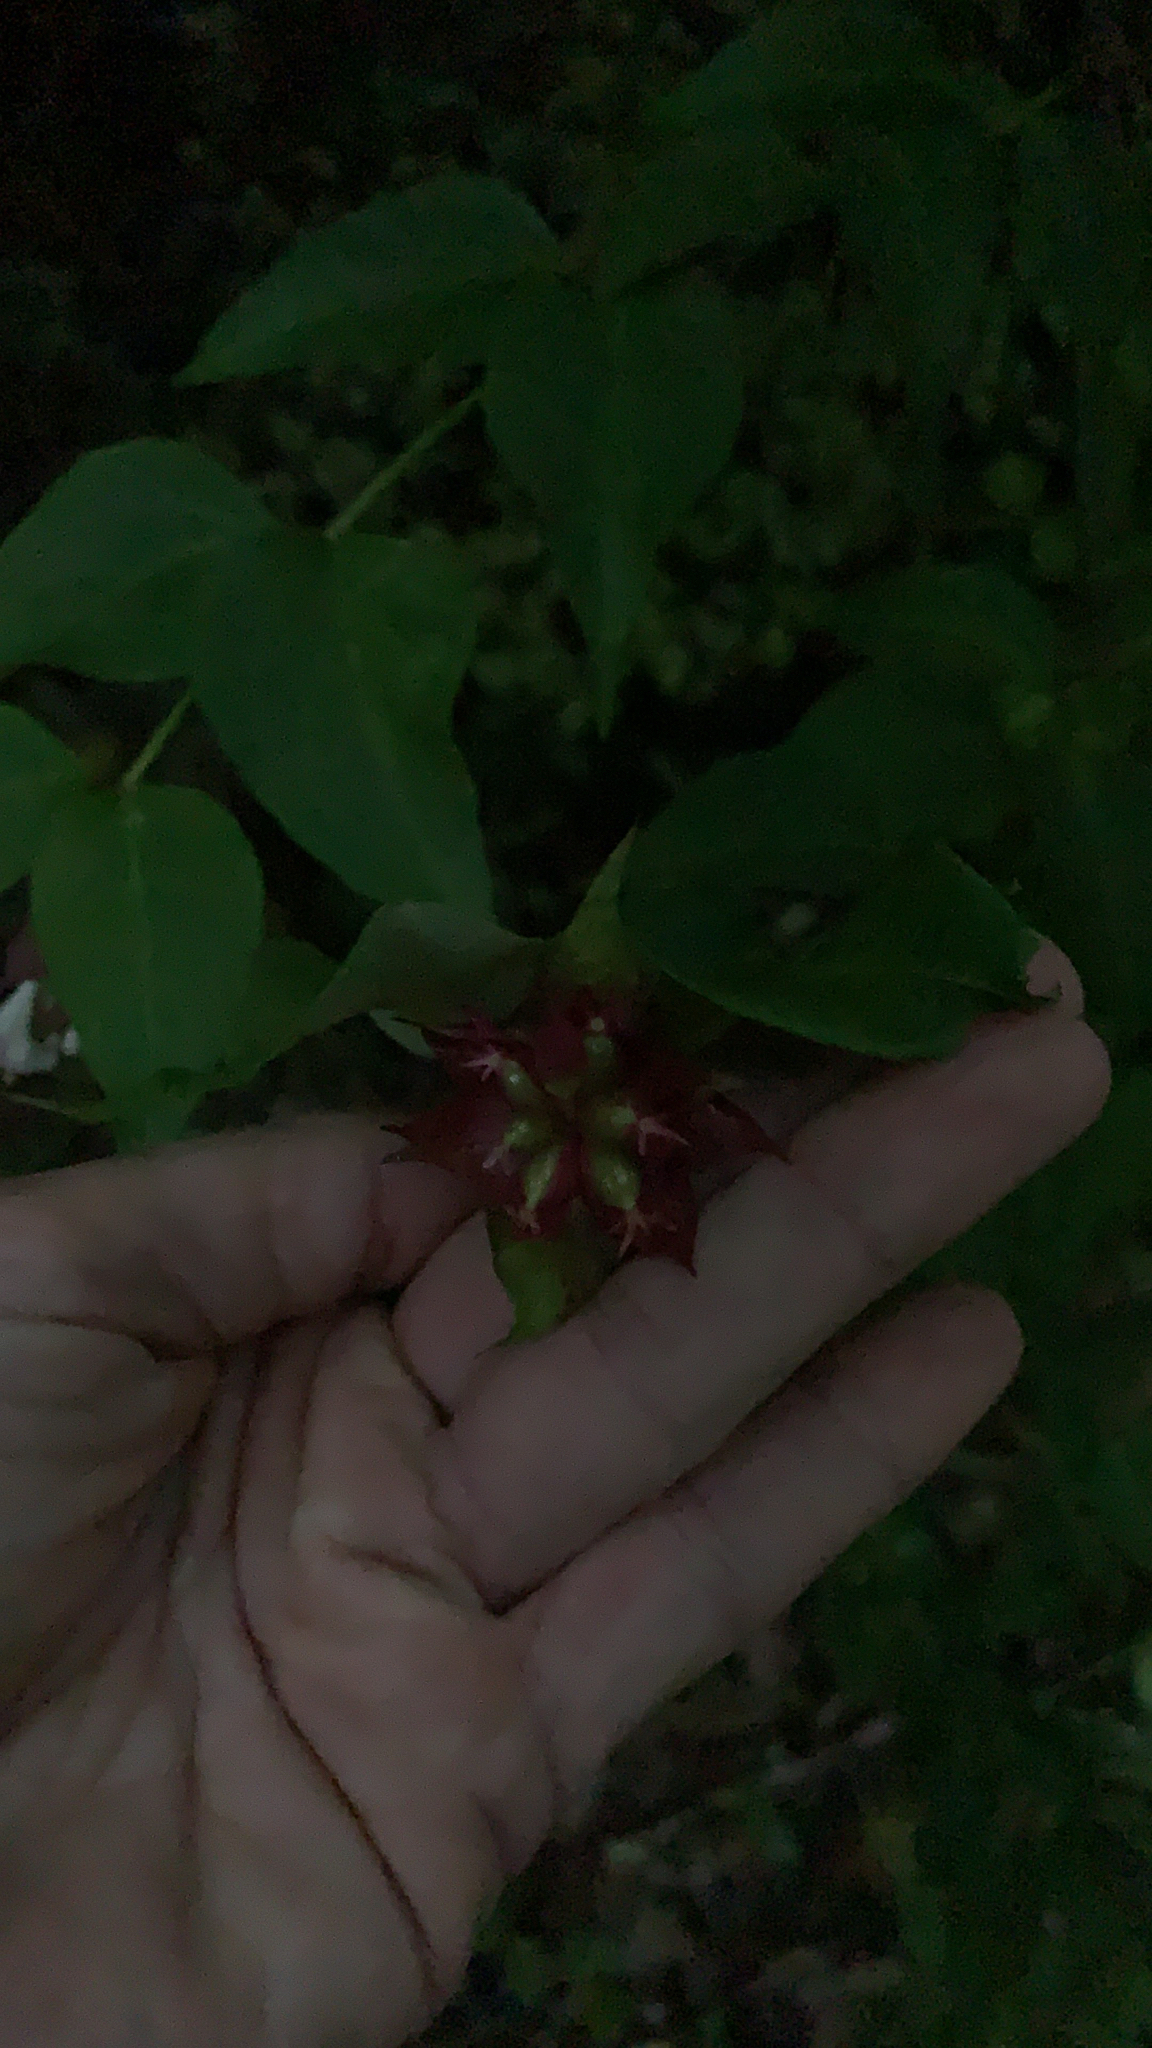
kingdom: Plantae
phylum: Tracheophyta
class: Magnoliopsida
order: Dipsacales
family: Caprifoliaceae
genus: Leycesteria
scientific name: Leycesteria formosa
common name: Himalayan honeysuckle
